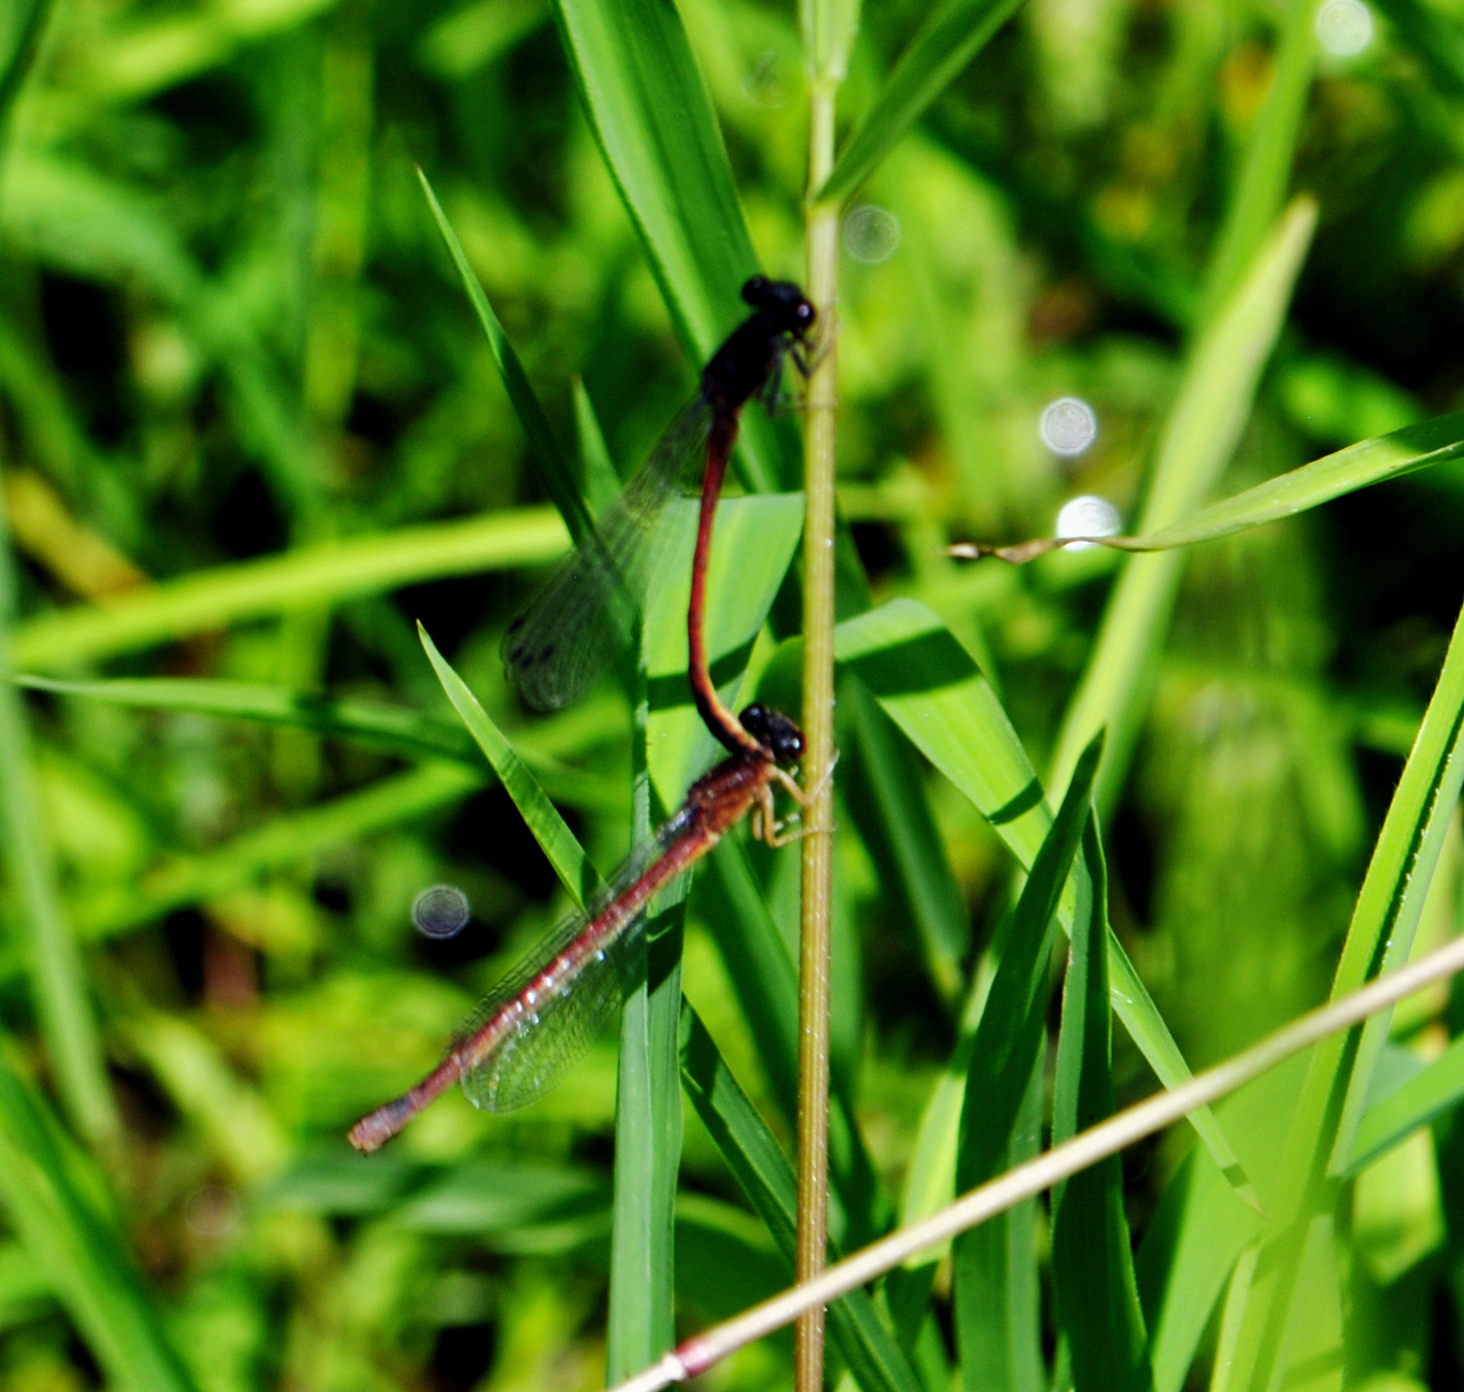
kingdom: Animalia
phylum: Arthropoda
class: Insecta
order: Odonata
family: Coenagrionidae
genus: Amphiagrion
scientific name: Amphiagrion saucium
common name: Eastern red damsel
